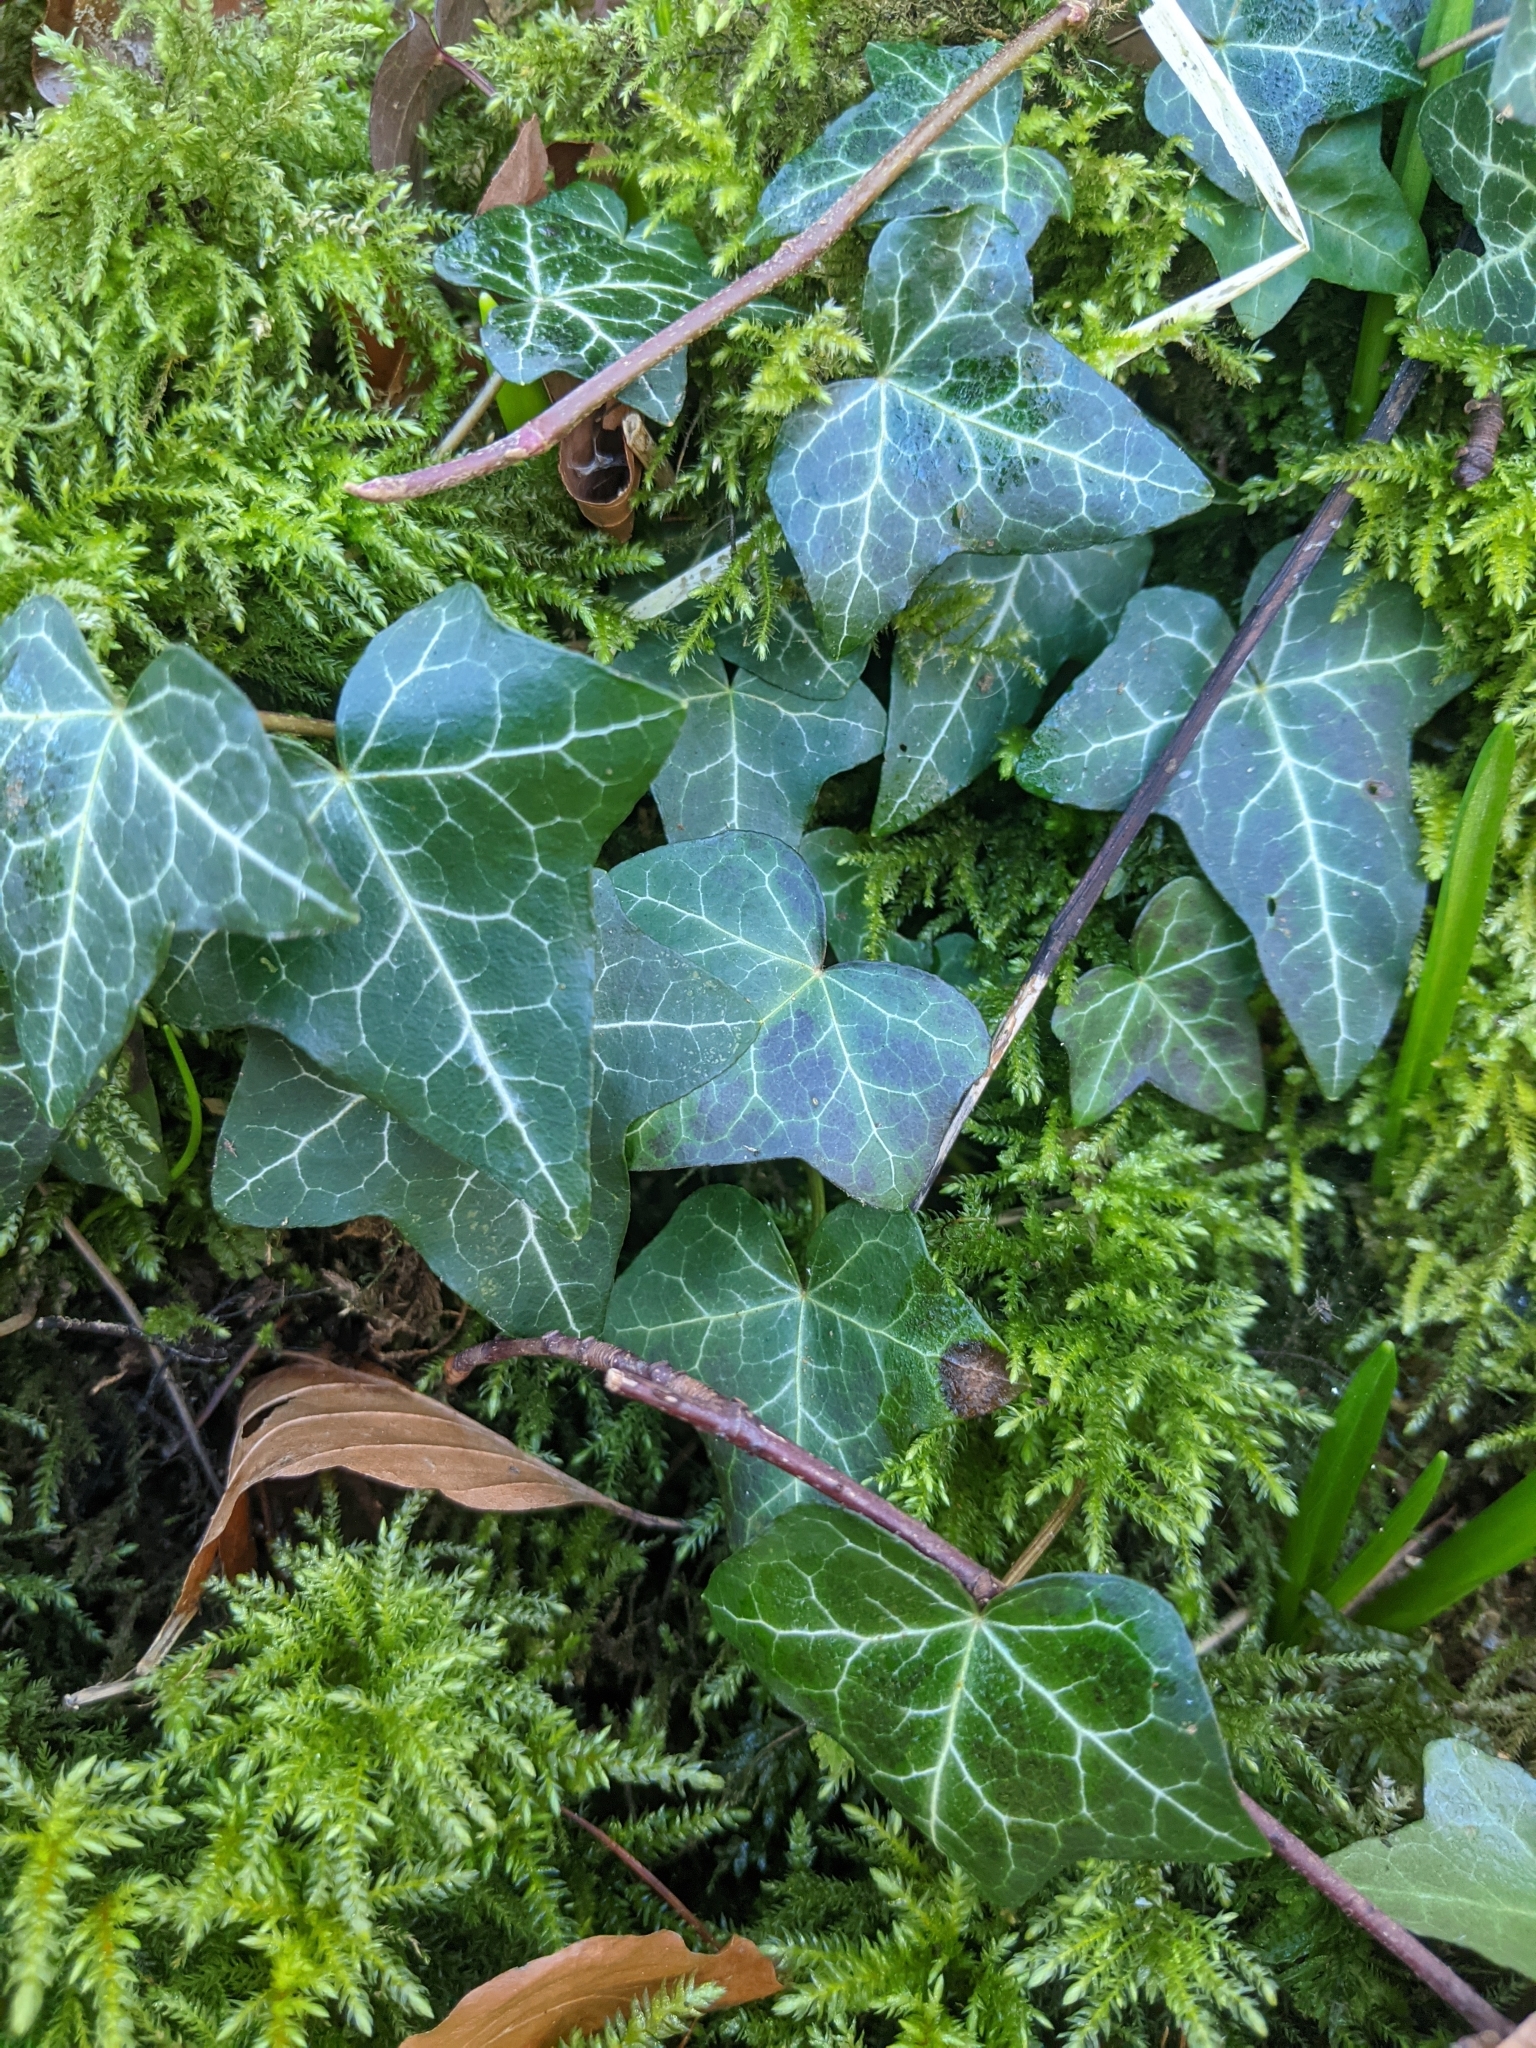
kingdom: Plantae
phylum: Tracheophyta
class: Magnoliopsida
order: Apiales
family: Araliaceae
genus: Hedera
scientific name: Hedera helix
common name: Ivy
